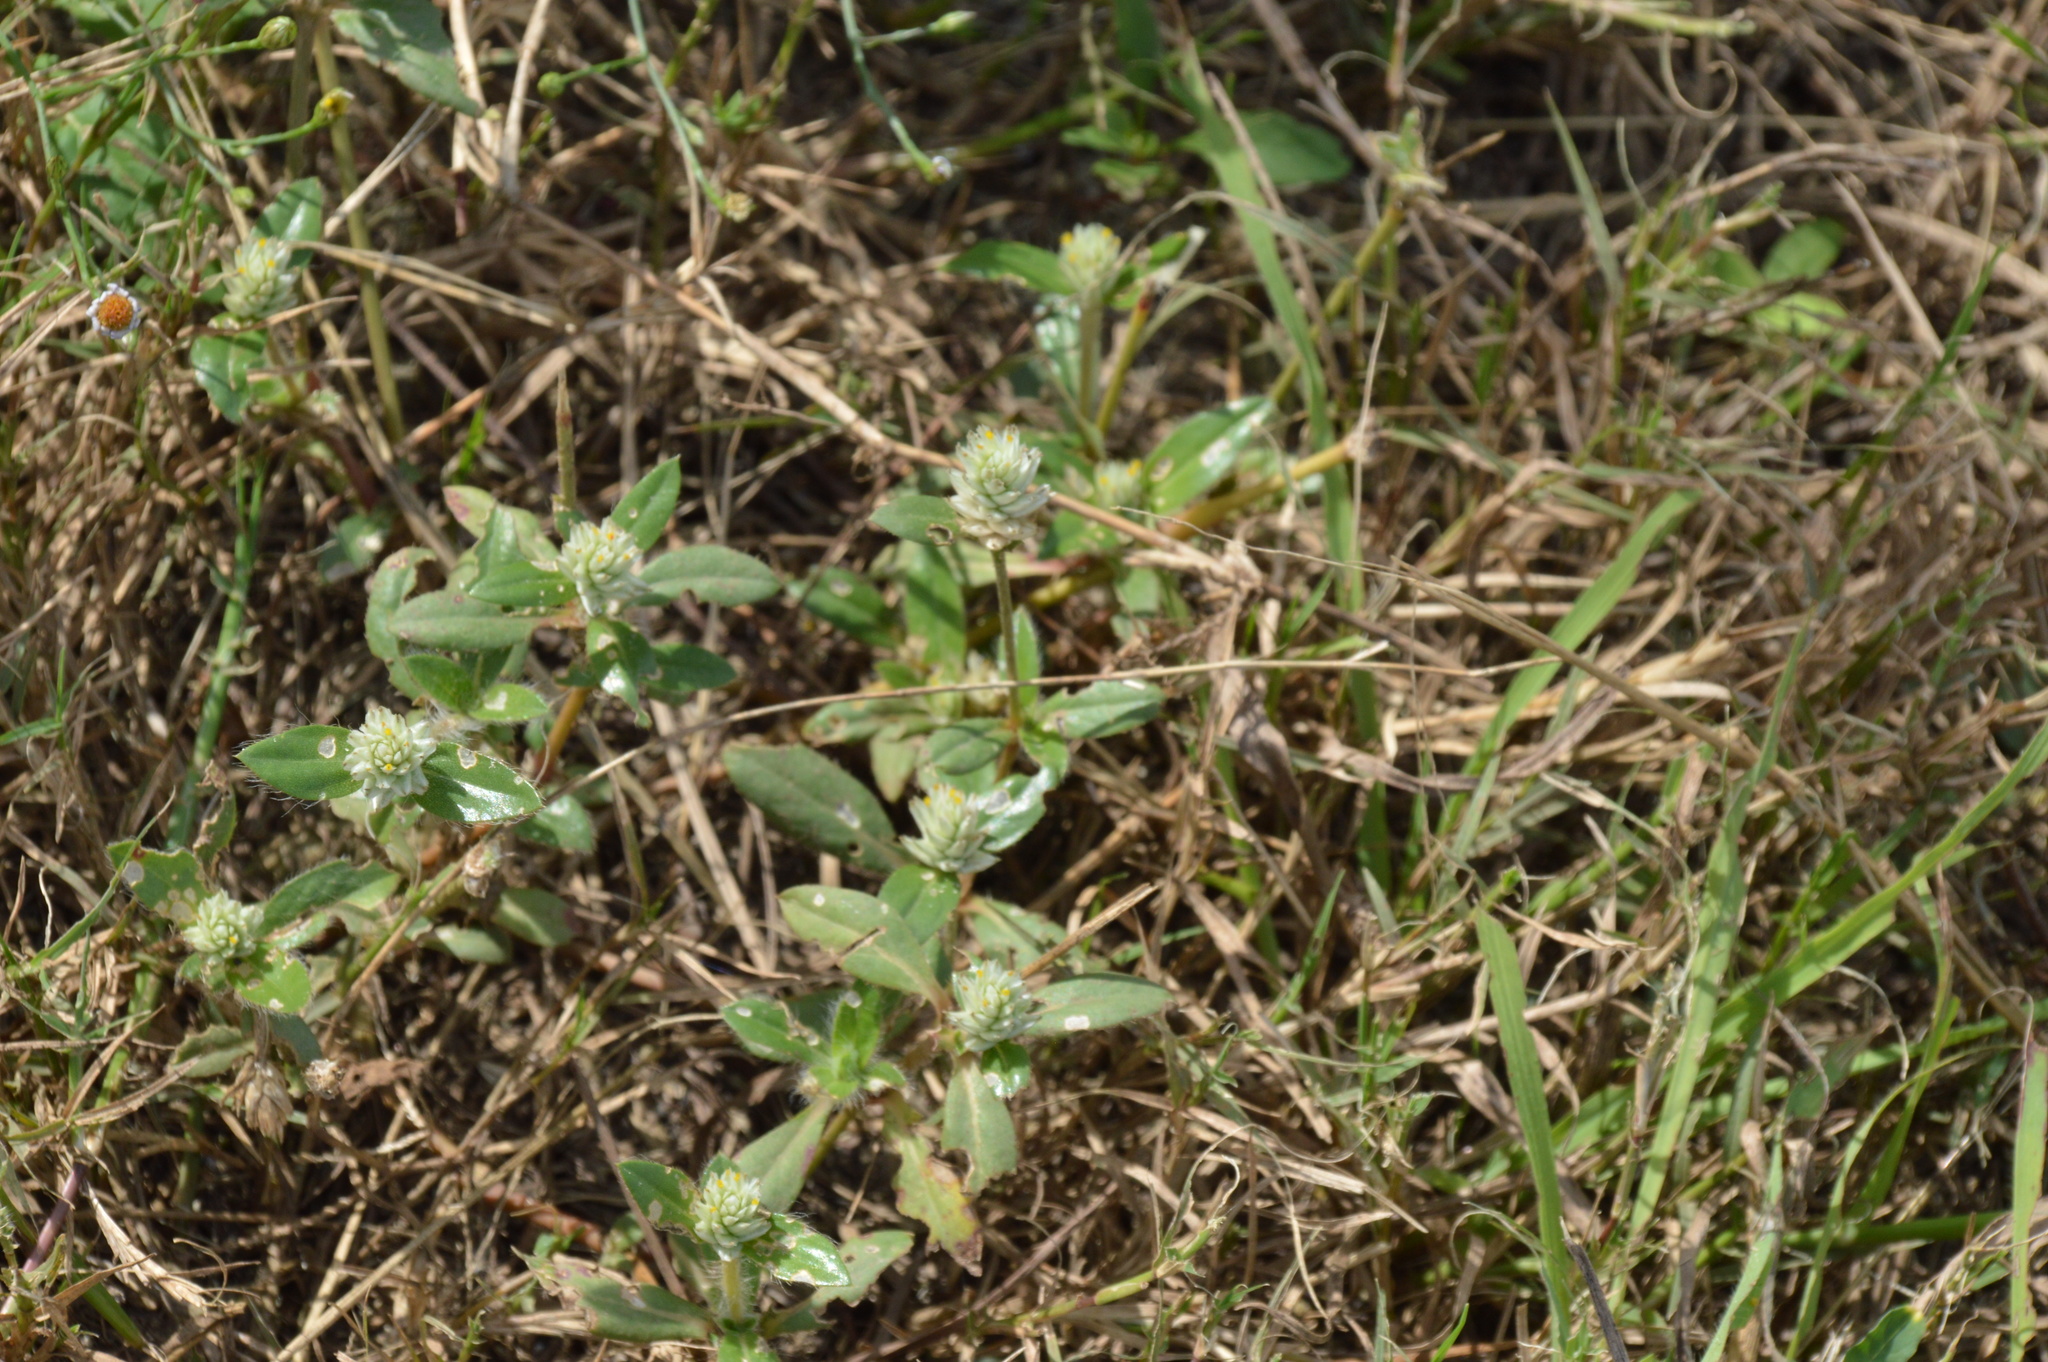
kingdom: Plantae
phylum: Tracheophyta
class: Magnoliopsida
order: Caryophyllales
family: Amaranthaceae
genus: Gomphrena
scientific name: Gomphrena serrata
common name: Arrasa con todo
